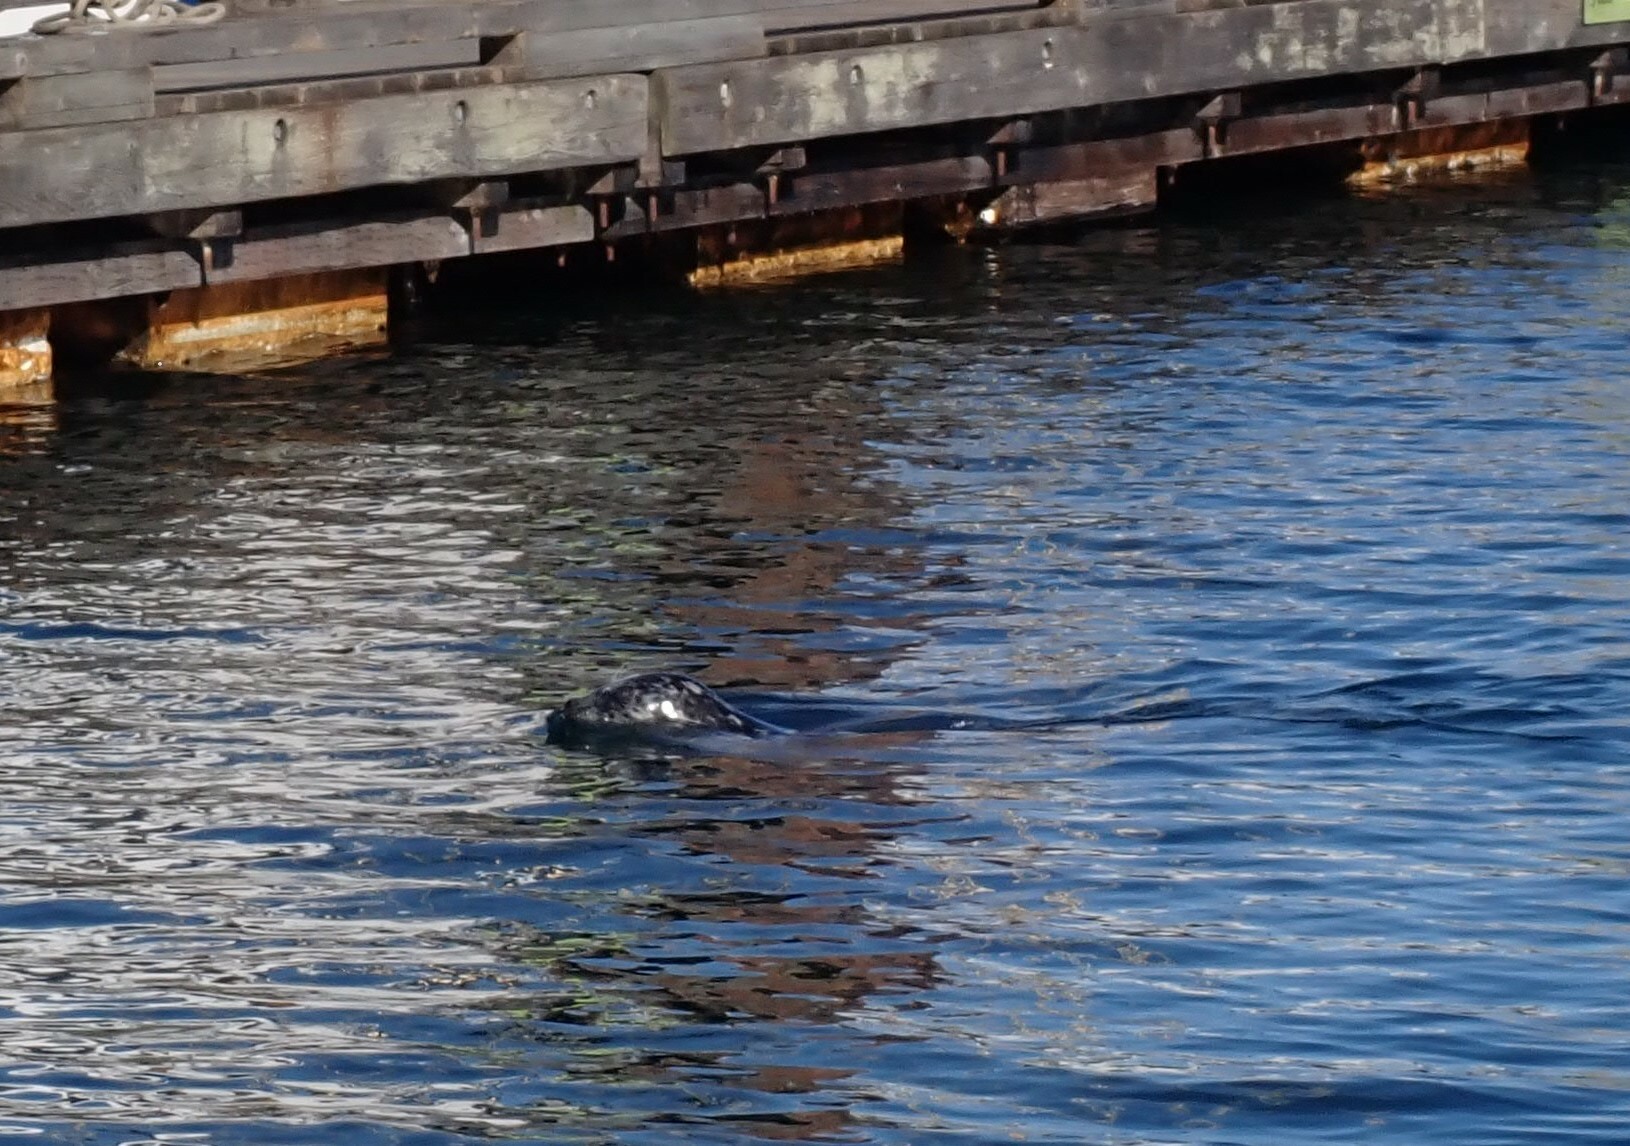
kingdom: Animalia
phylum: Chordata
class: Mammalia
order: Carnivora
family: Phocidae
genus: Phoca
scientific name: Phoca vitulina
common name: Harbor seal
